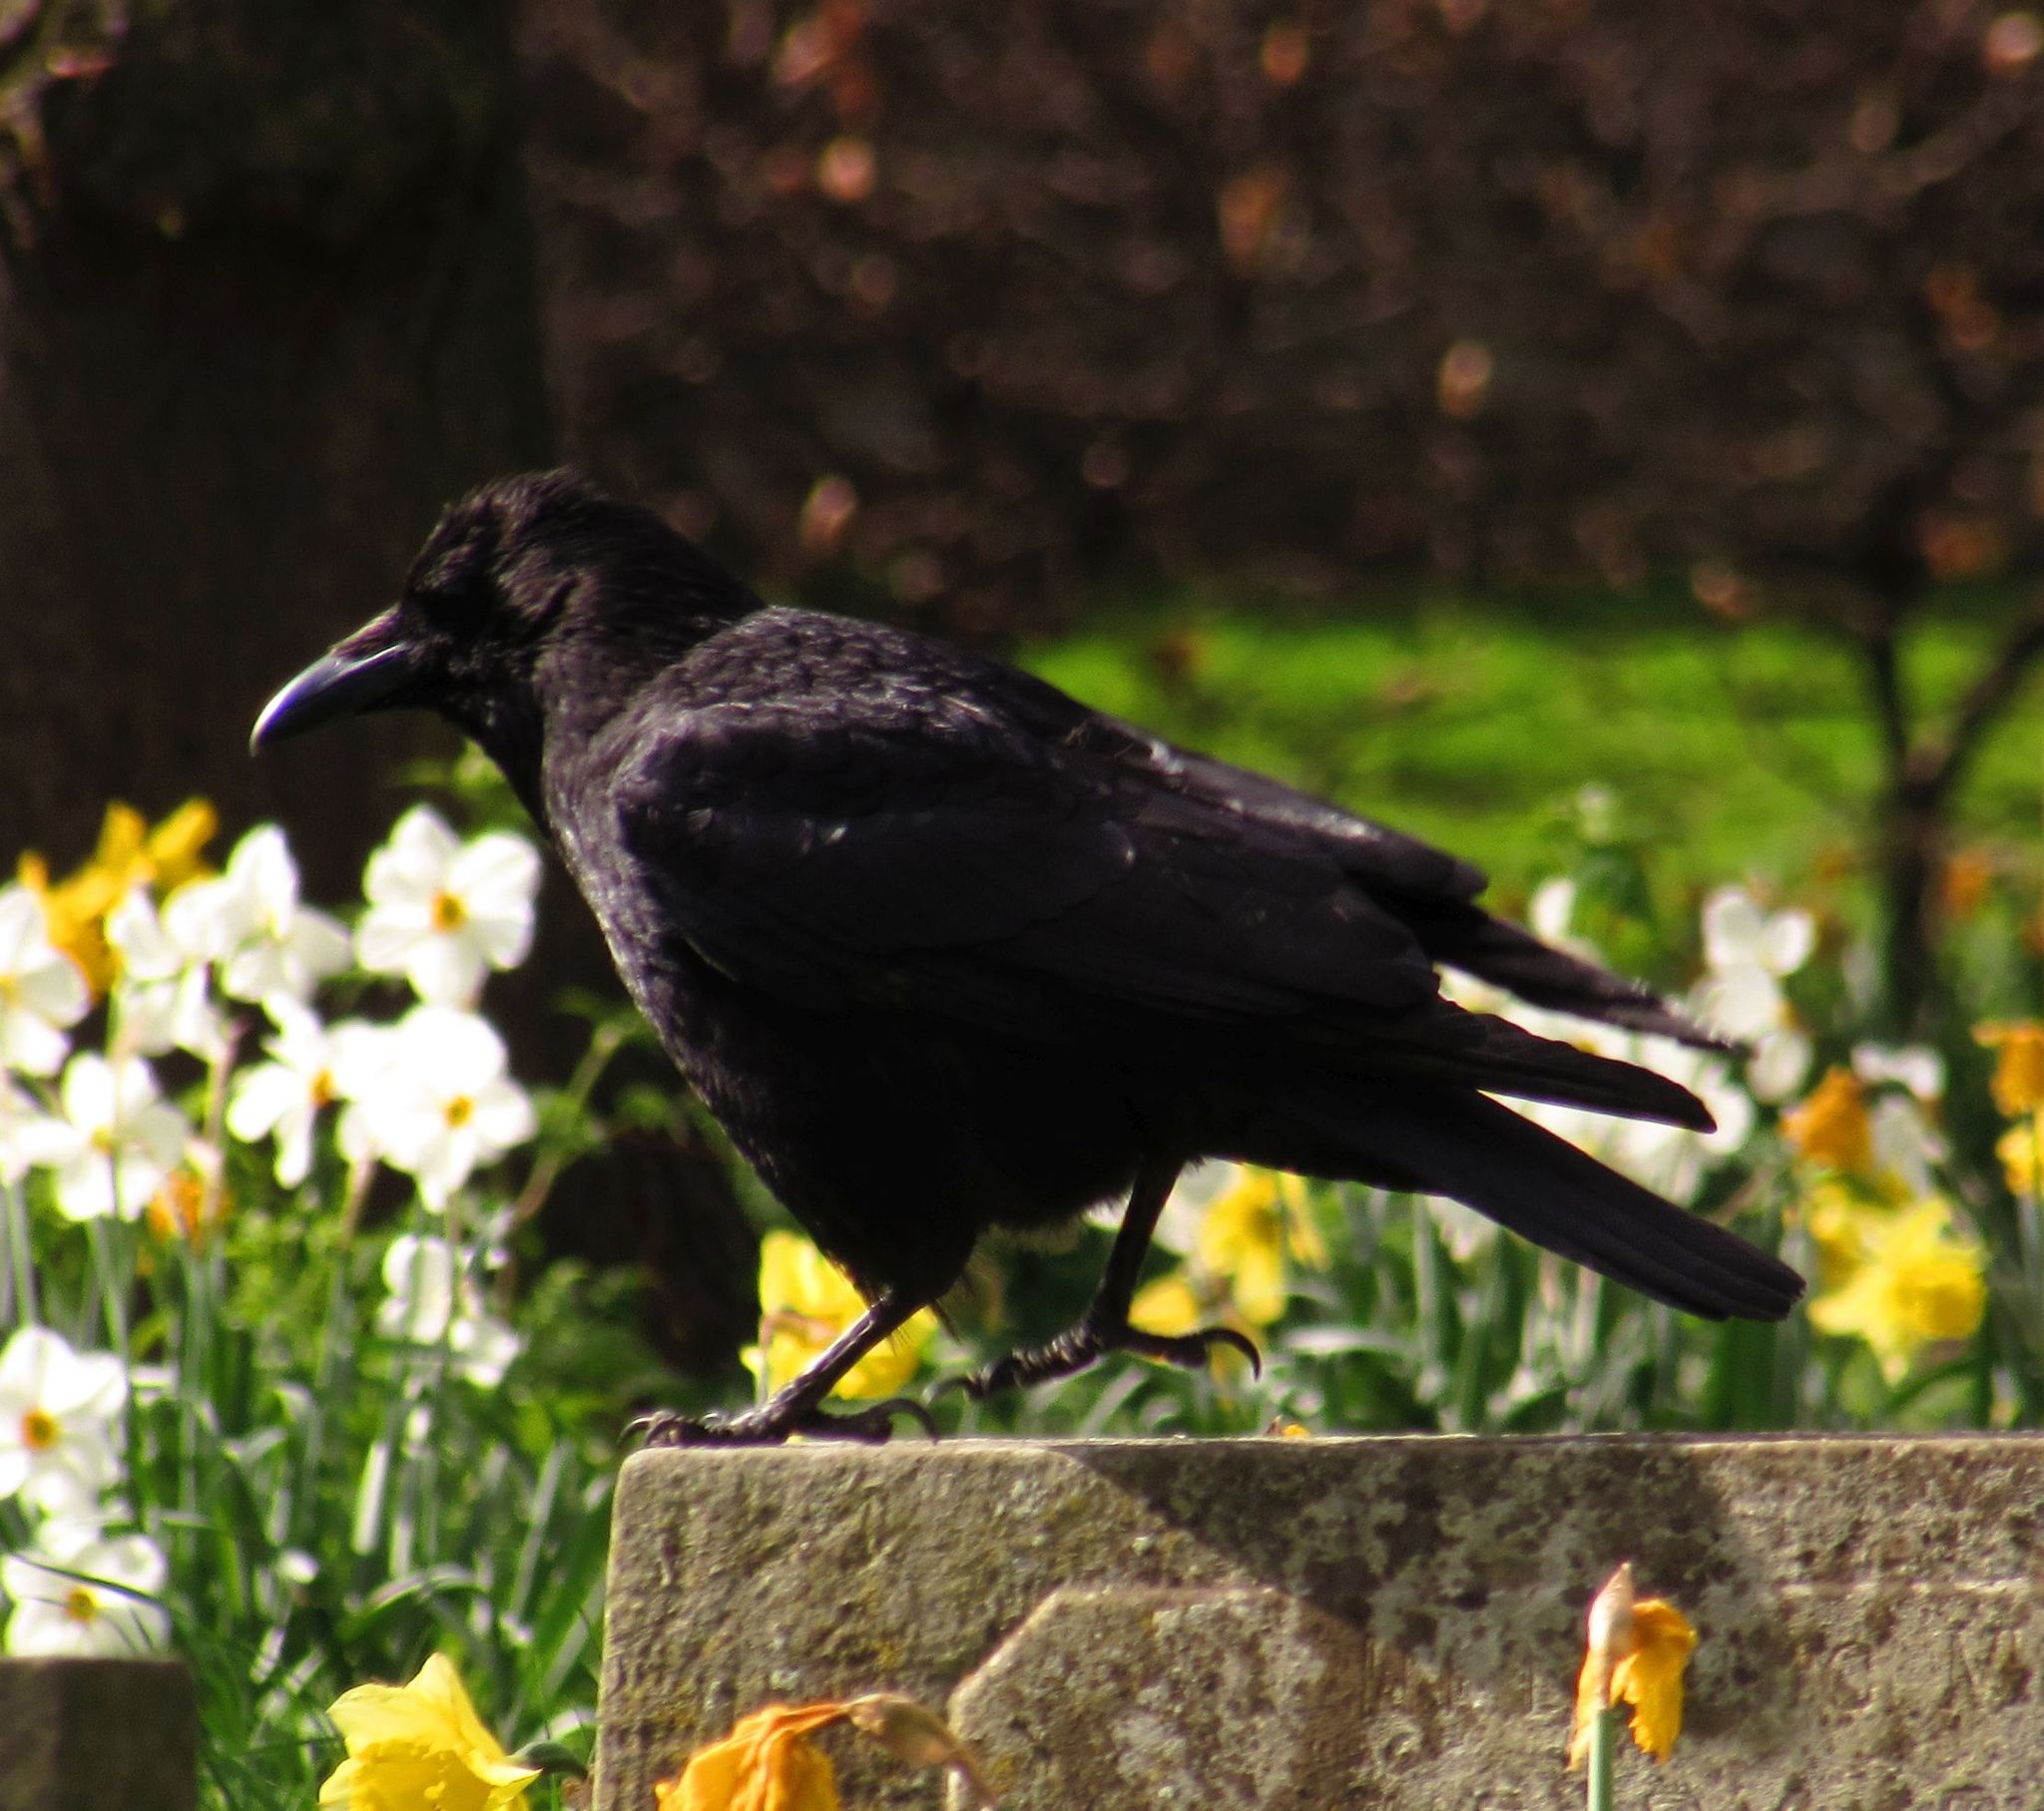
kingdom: Animalia
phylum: Chordata
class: Aves
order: Passeriformes
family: Corvidae
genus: Corvus
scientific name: Corvus corone
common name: Carrion crow
